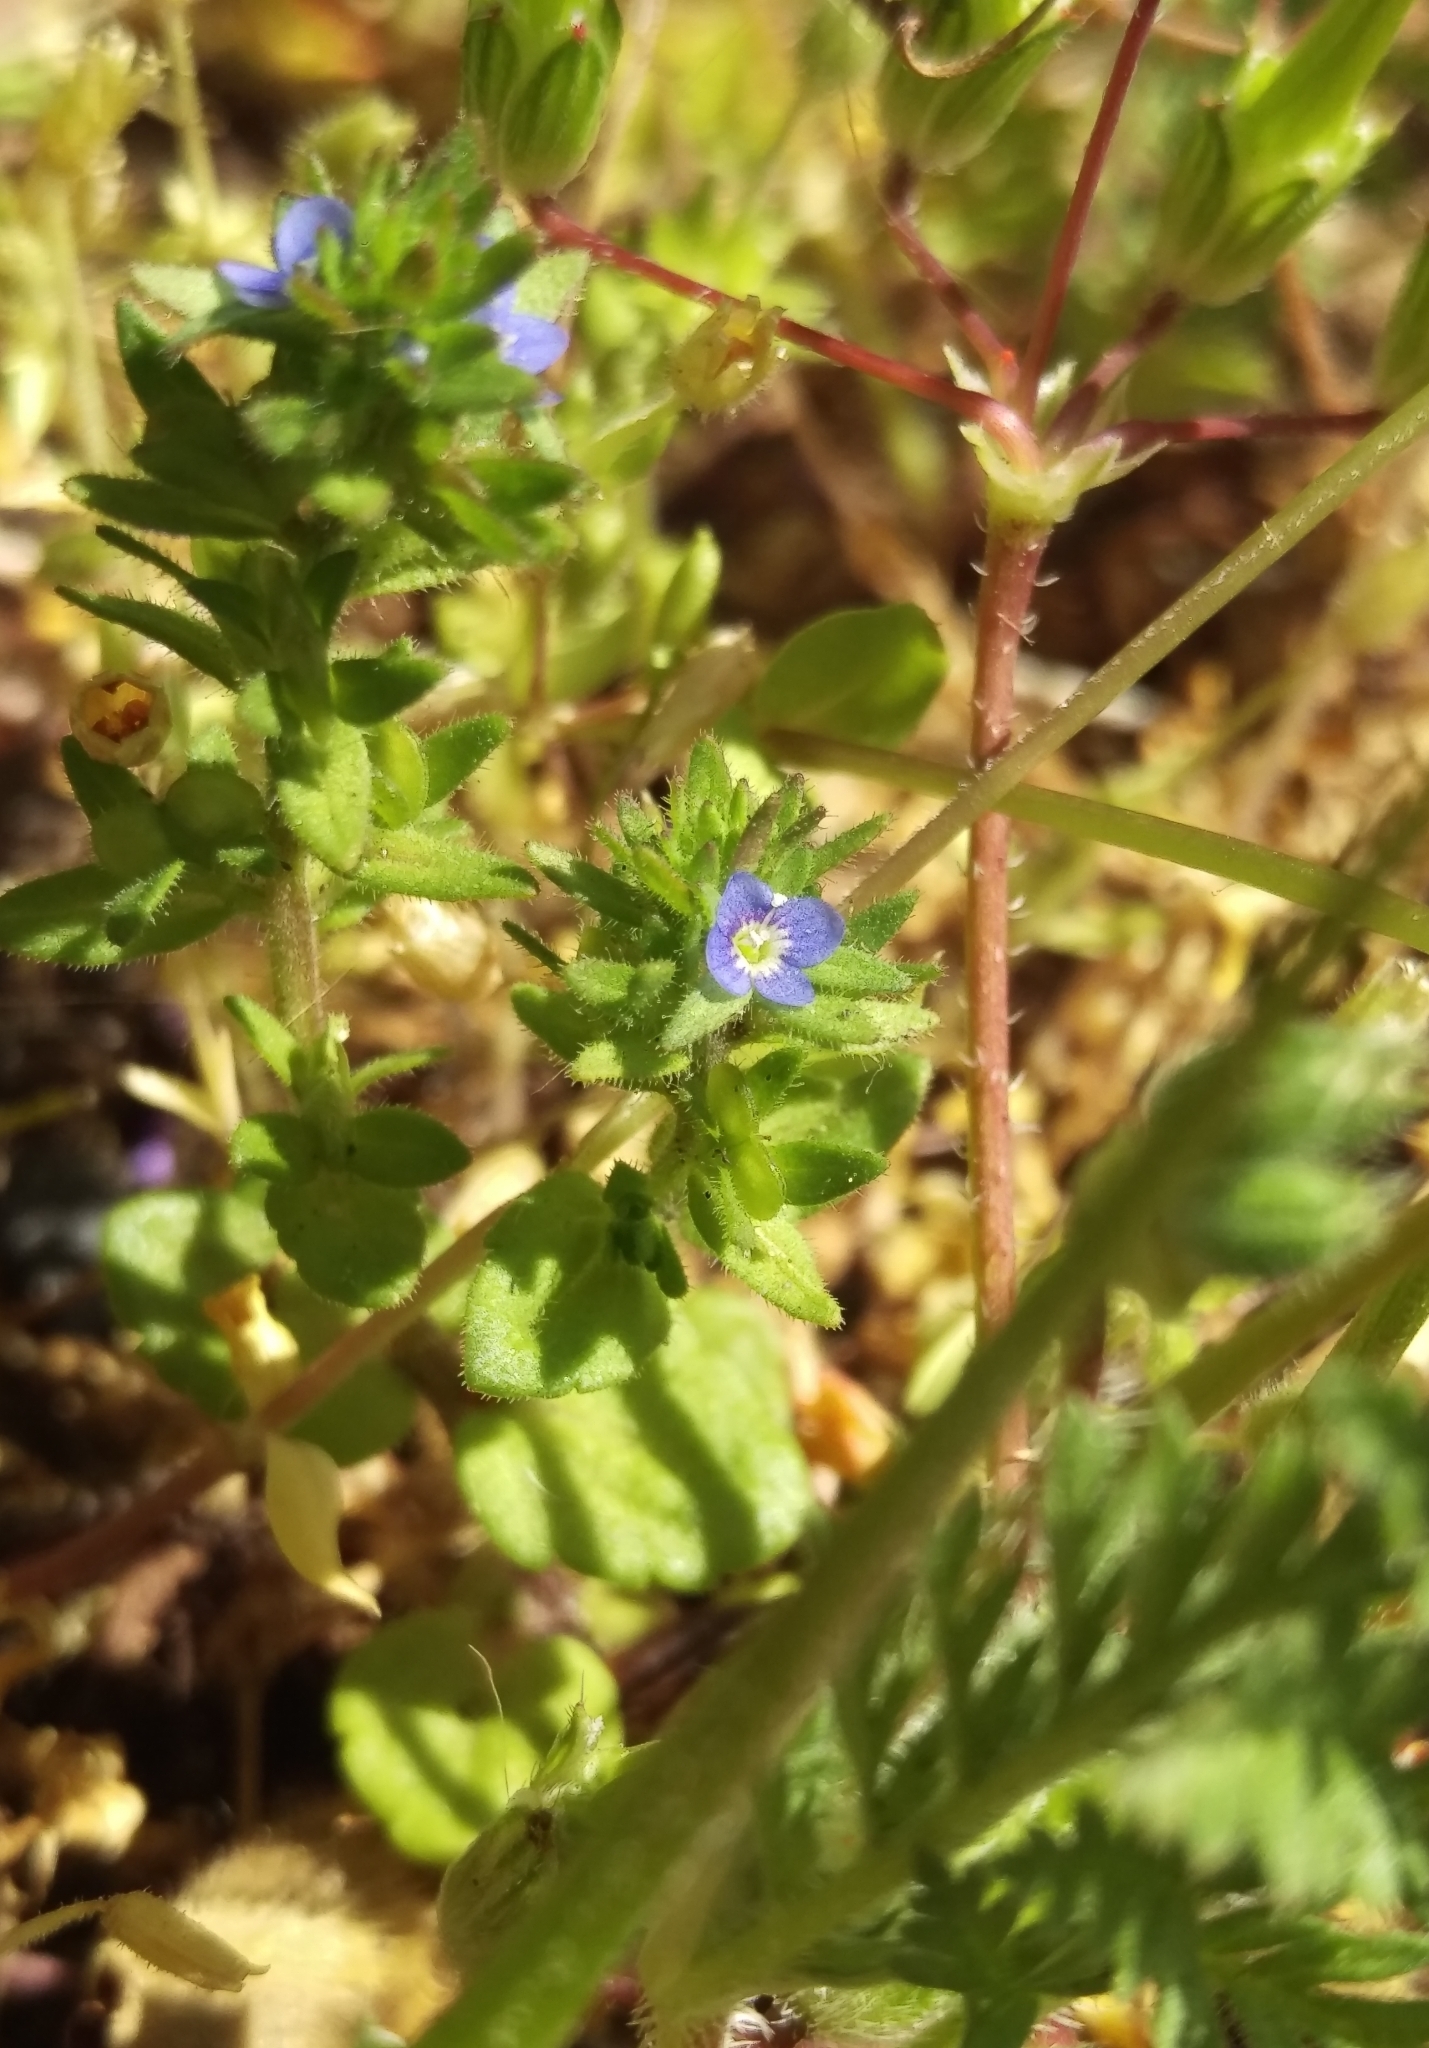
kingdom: Plantae
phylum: Tracheophyta
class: Magnoliopsida
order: Lamiales
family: Plantaginaceae
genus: Veronica
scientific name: Veronica arvensis
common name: Corn speedwell
